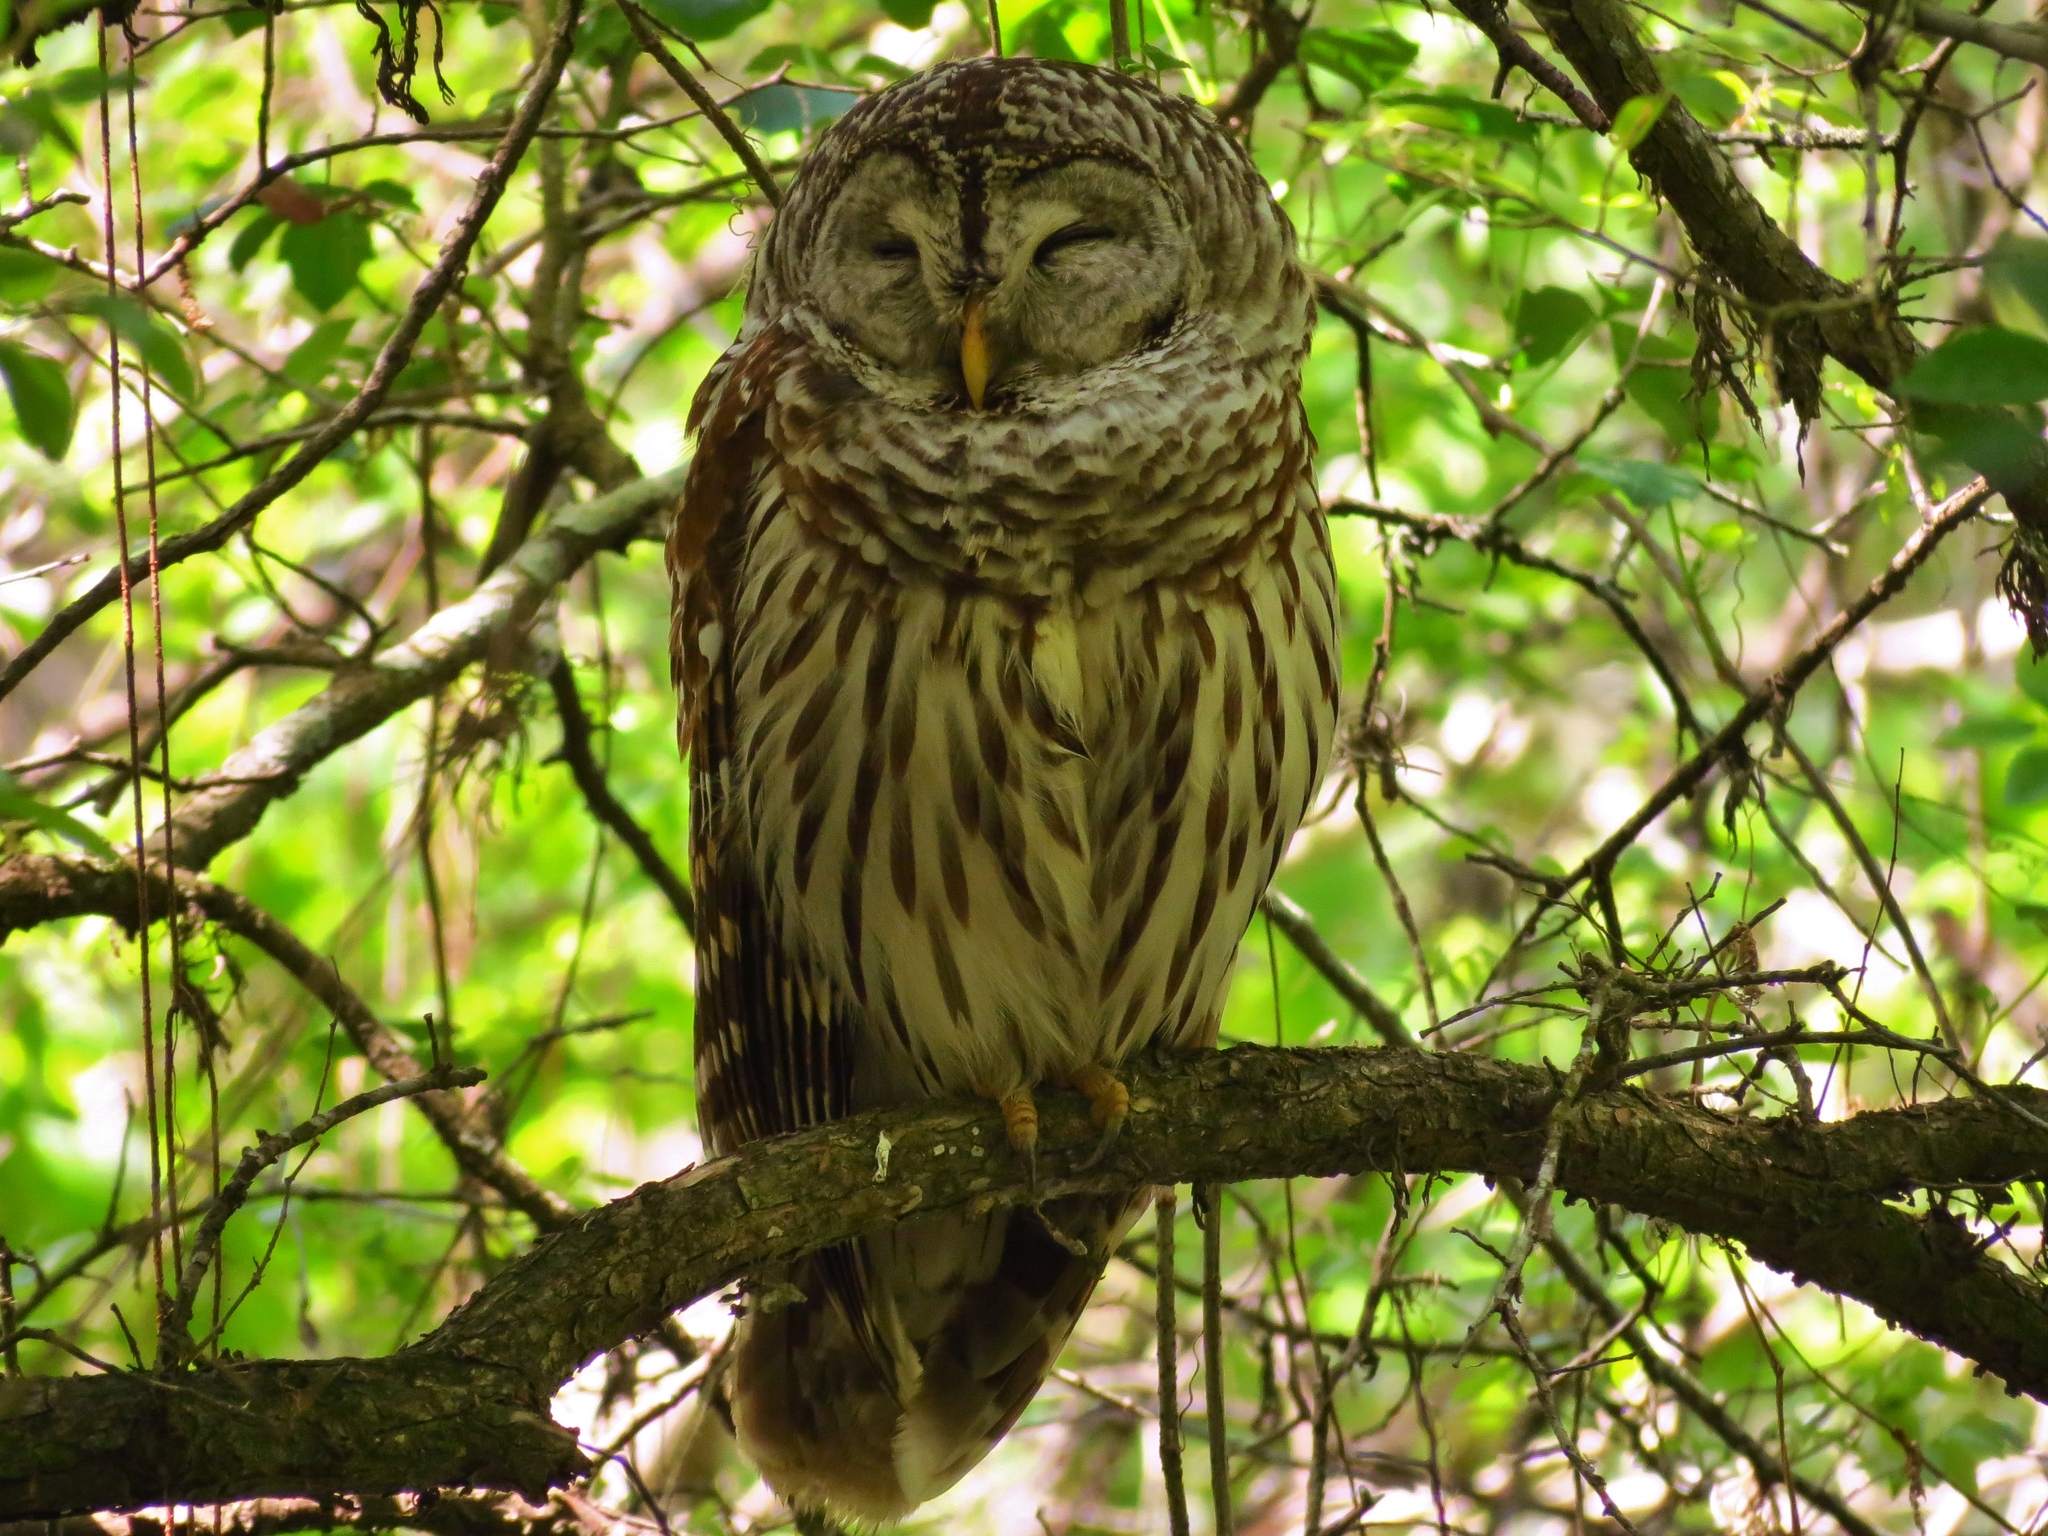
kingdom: Animalia
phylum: Chordata
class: Aves
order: Strigiformes
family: Strigidae
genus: Strix
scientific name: Strix varia
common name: Barred owl
